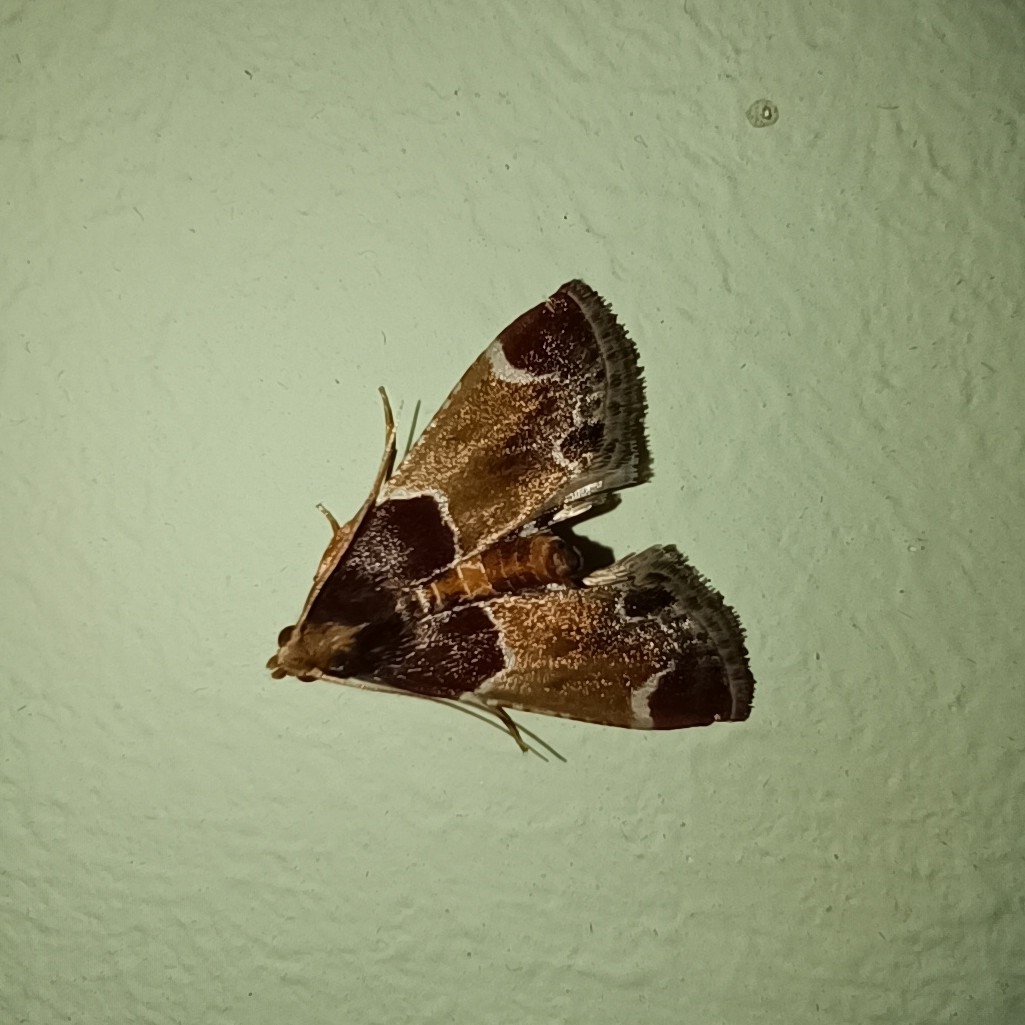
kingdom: Animalia
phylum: Arthropoda
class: Insecta
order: Lepidoptera
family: Pyralidae
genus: Pyralis
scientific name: Pyralis farinalis
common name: Meal moth
